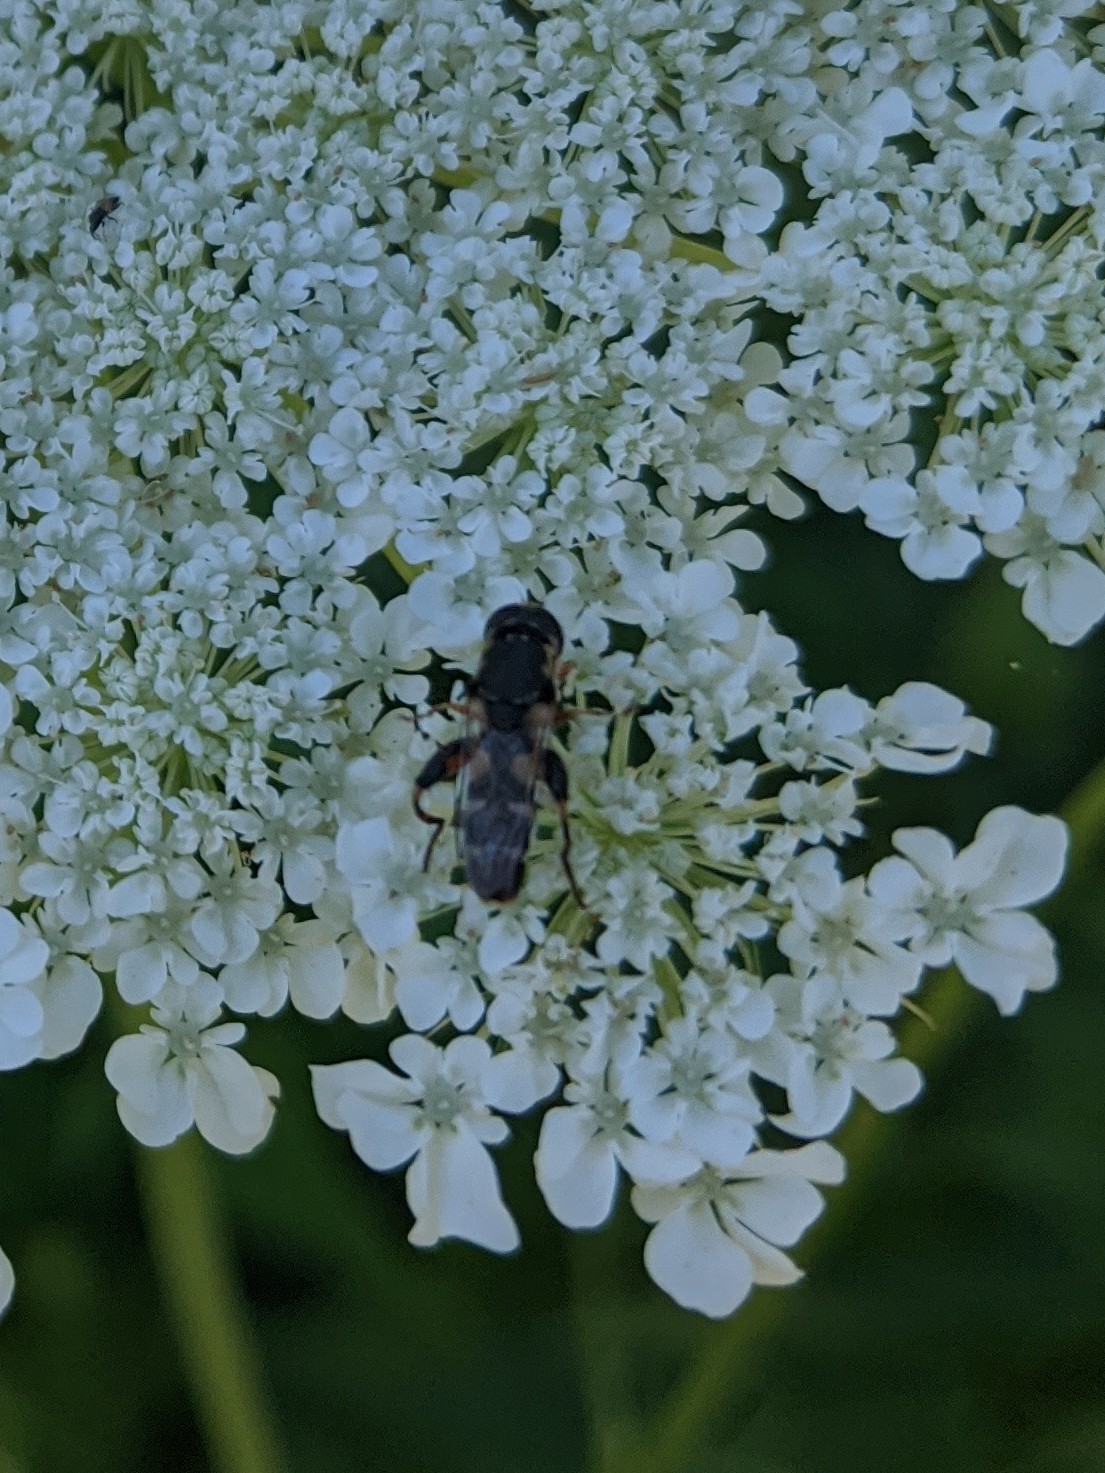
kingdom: Animalia
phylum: Arthropoda
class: Insecta
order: Diptera
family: Syrphidae
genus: Syritta
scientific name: Syritta pipiens
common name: Hover fly
